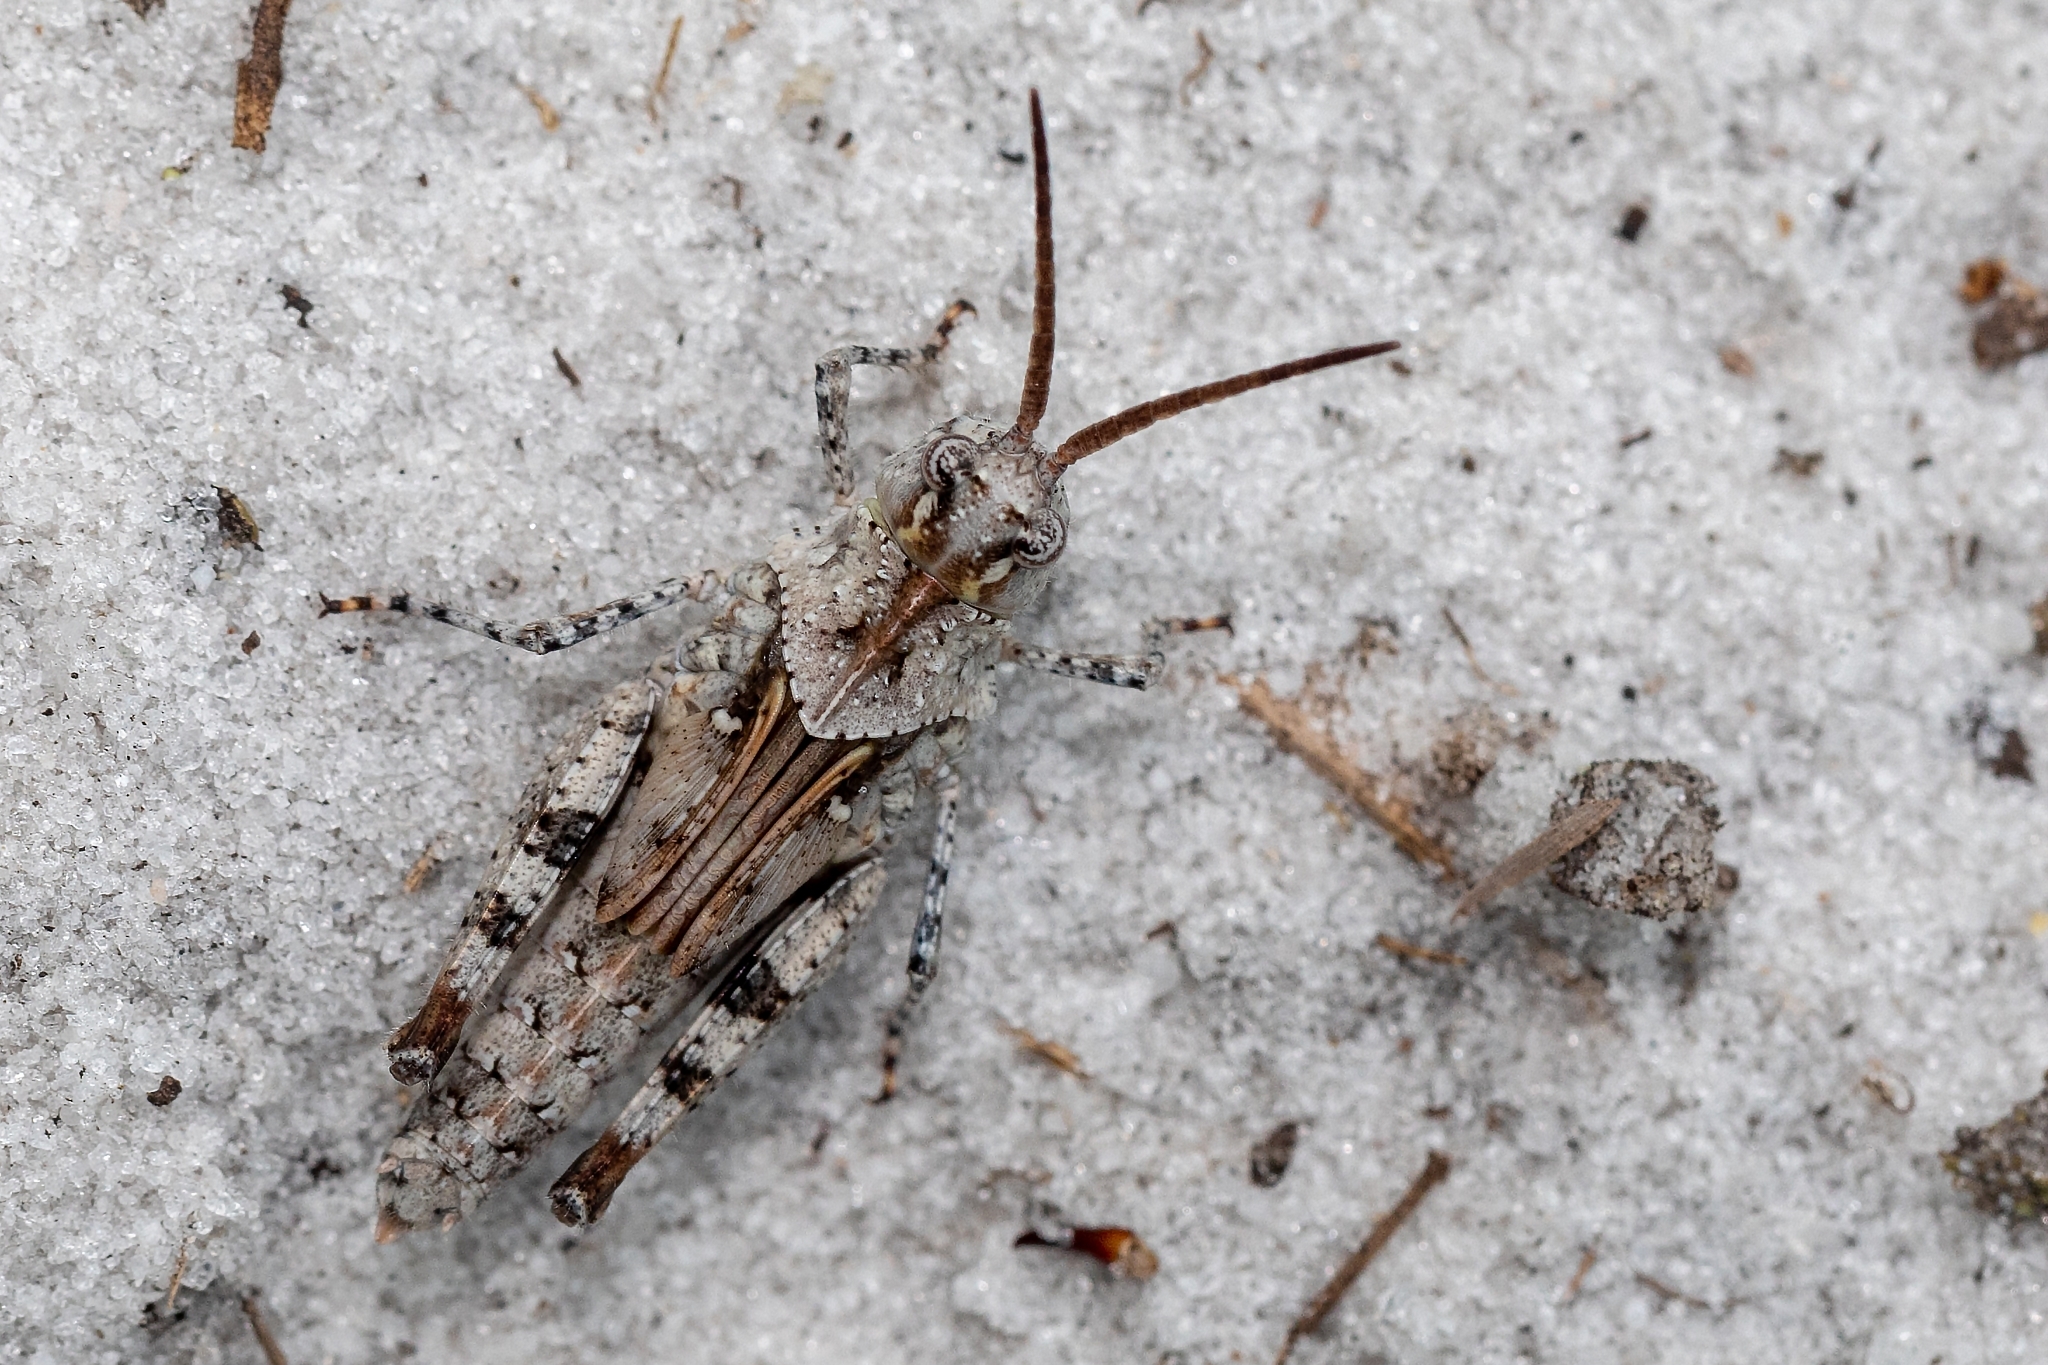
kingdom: Animalia
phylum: Arthropoda
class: Insecta
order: Orthoptera
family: Acrididae
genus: Psinidia
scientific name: Psinidia fenestralis
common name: Long-horned locust
